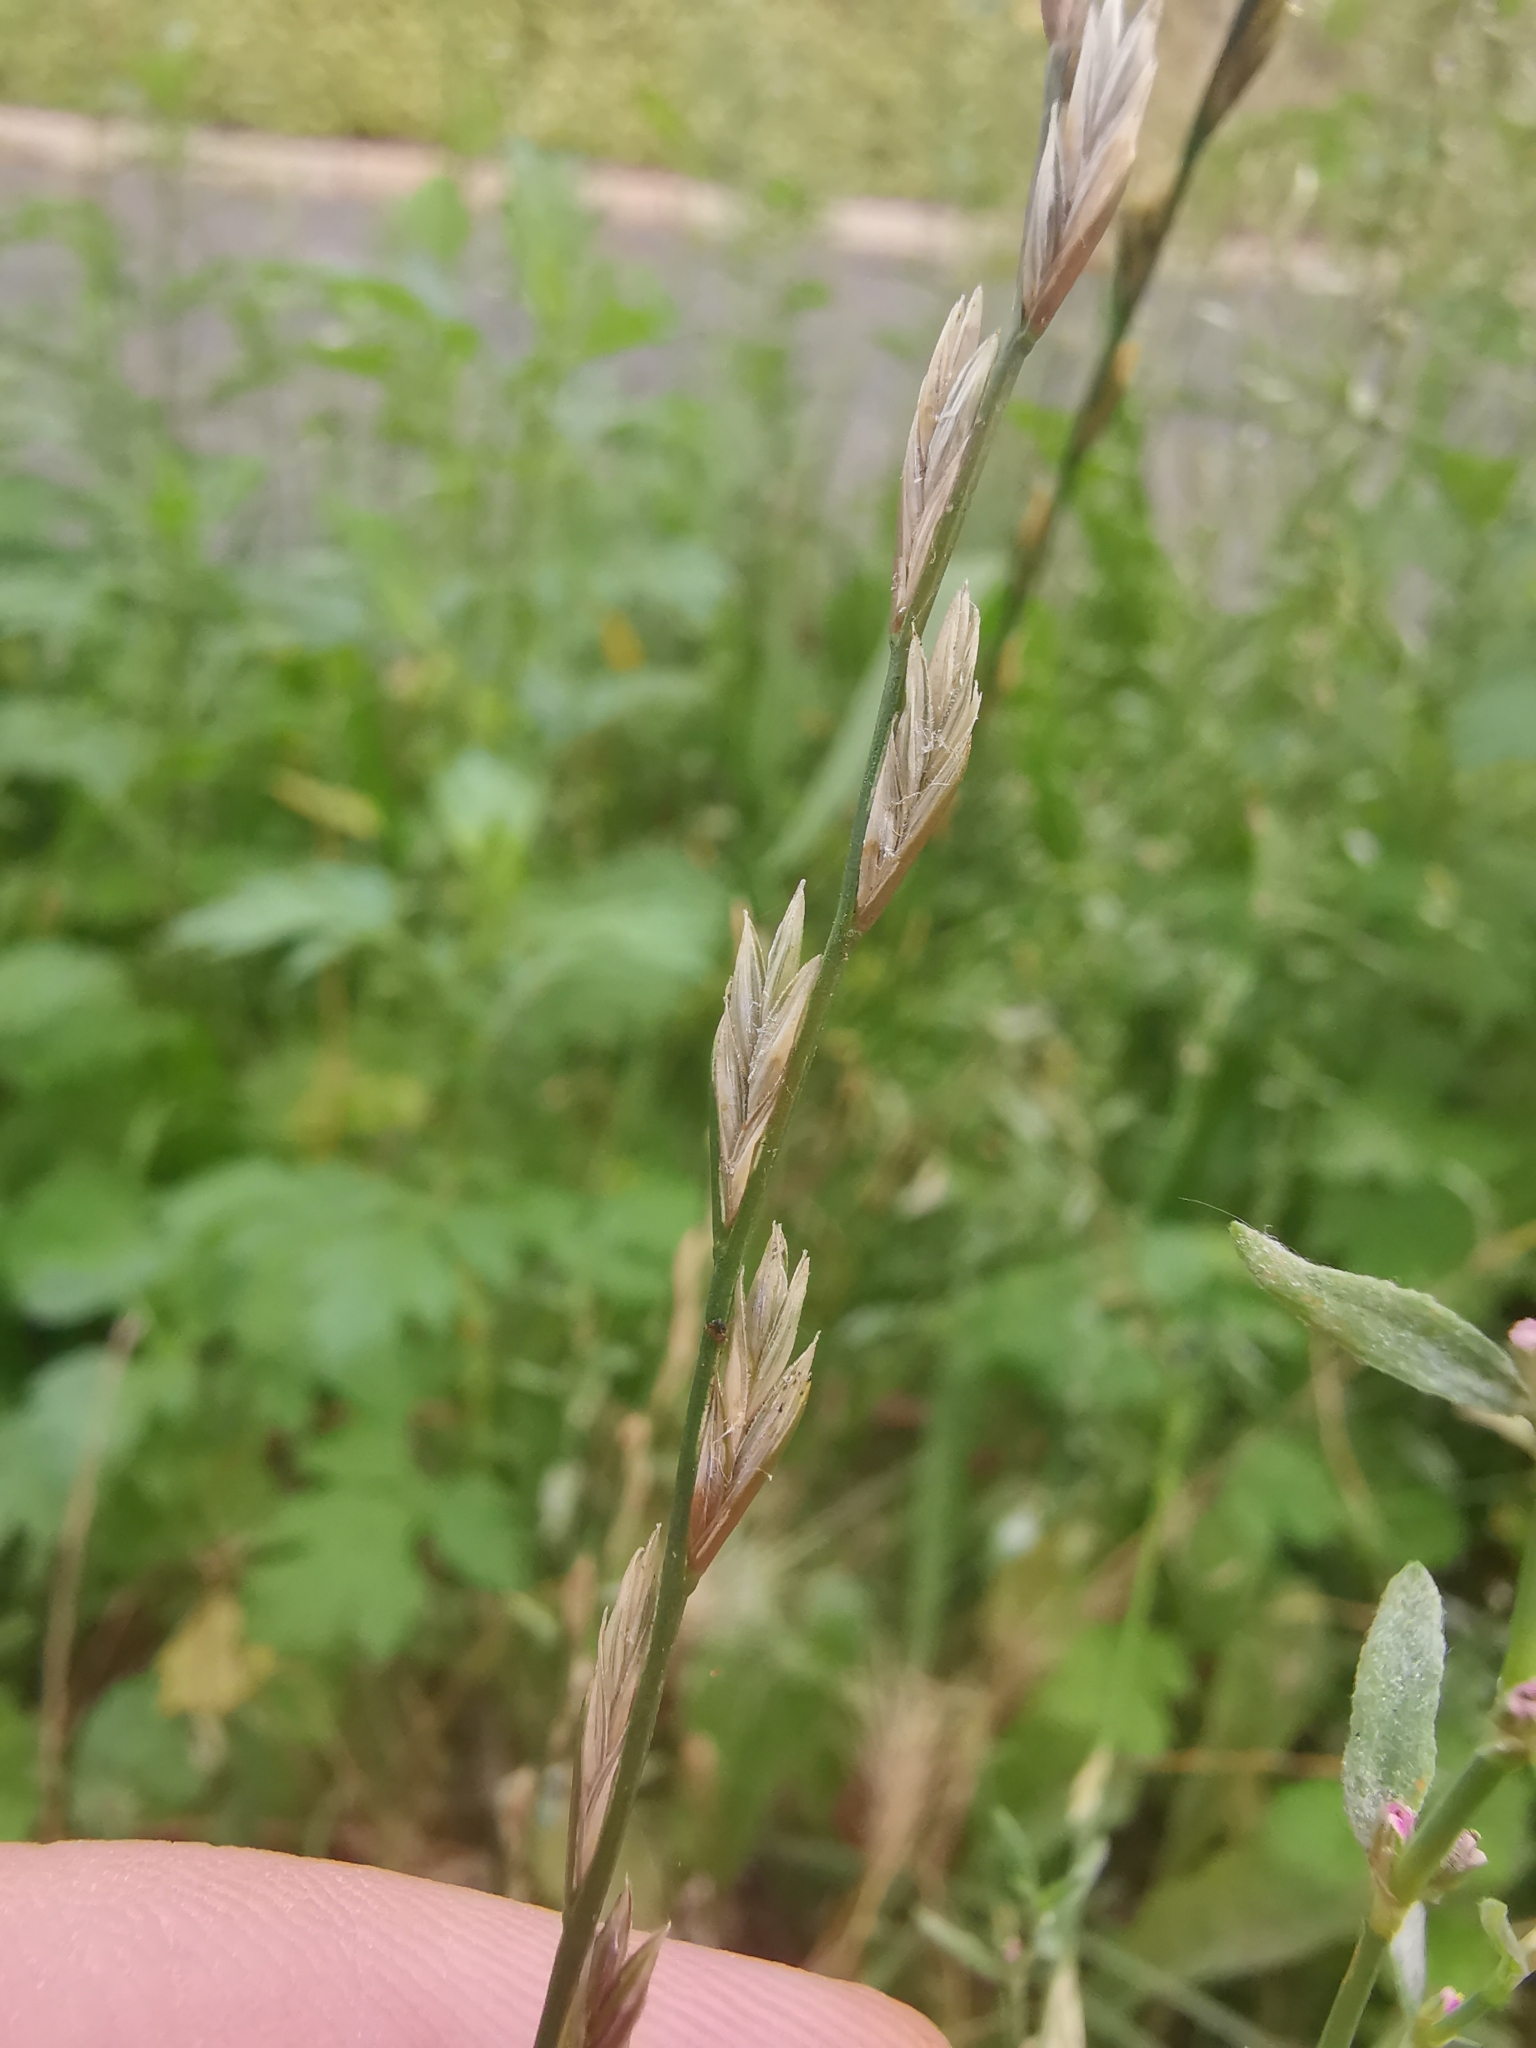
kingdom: Plantae
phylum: Tracheophyta
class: Liliopsida
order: Poales
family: Poaceae
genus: Lolium
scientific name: Lolium perenne
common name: Perennial ryegrass
